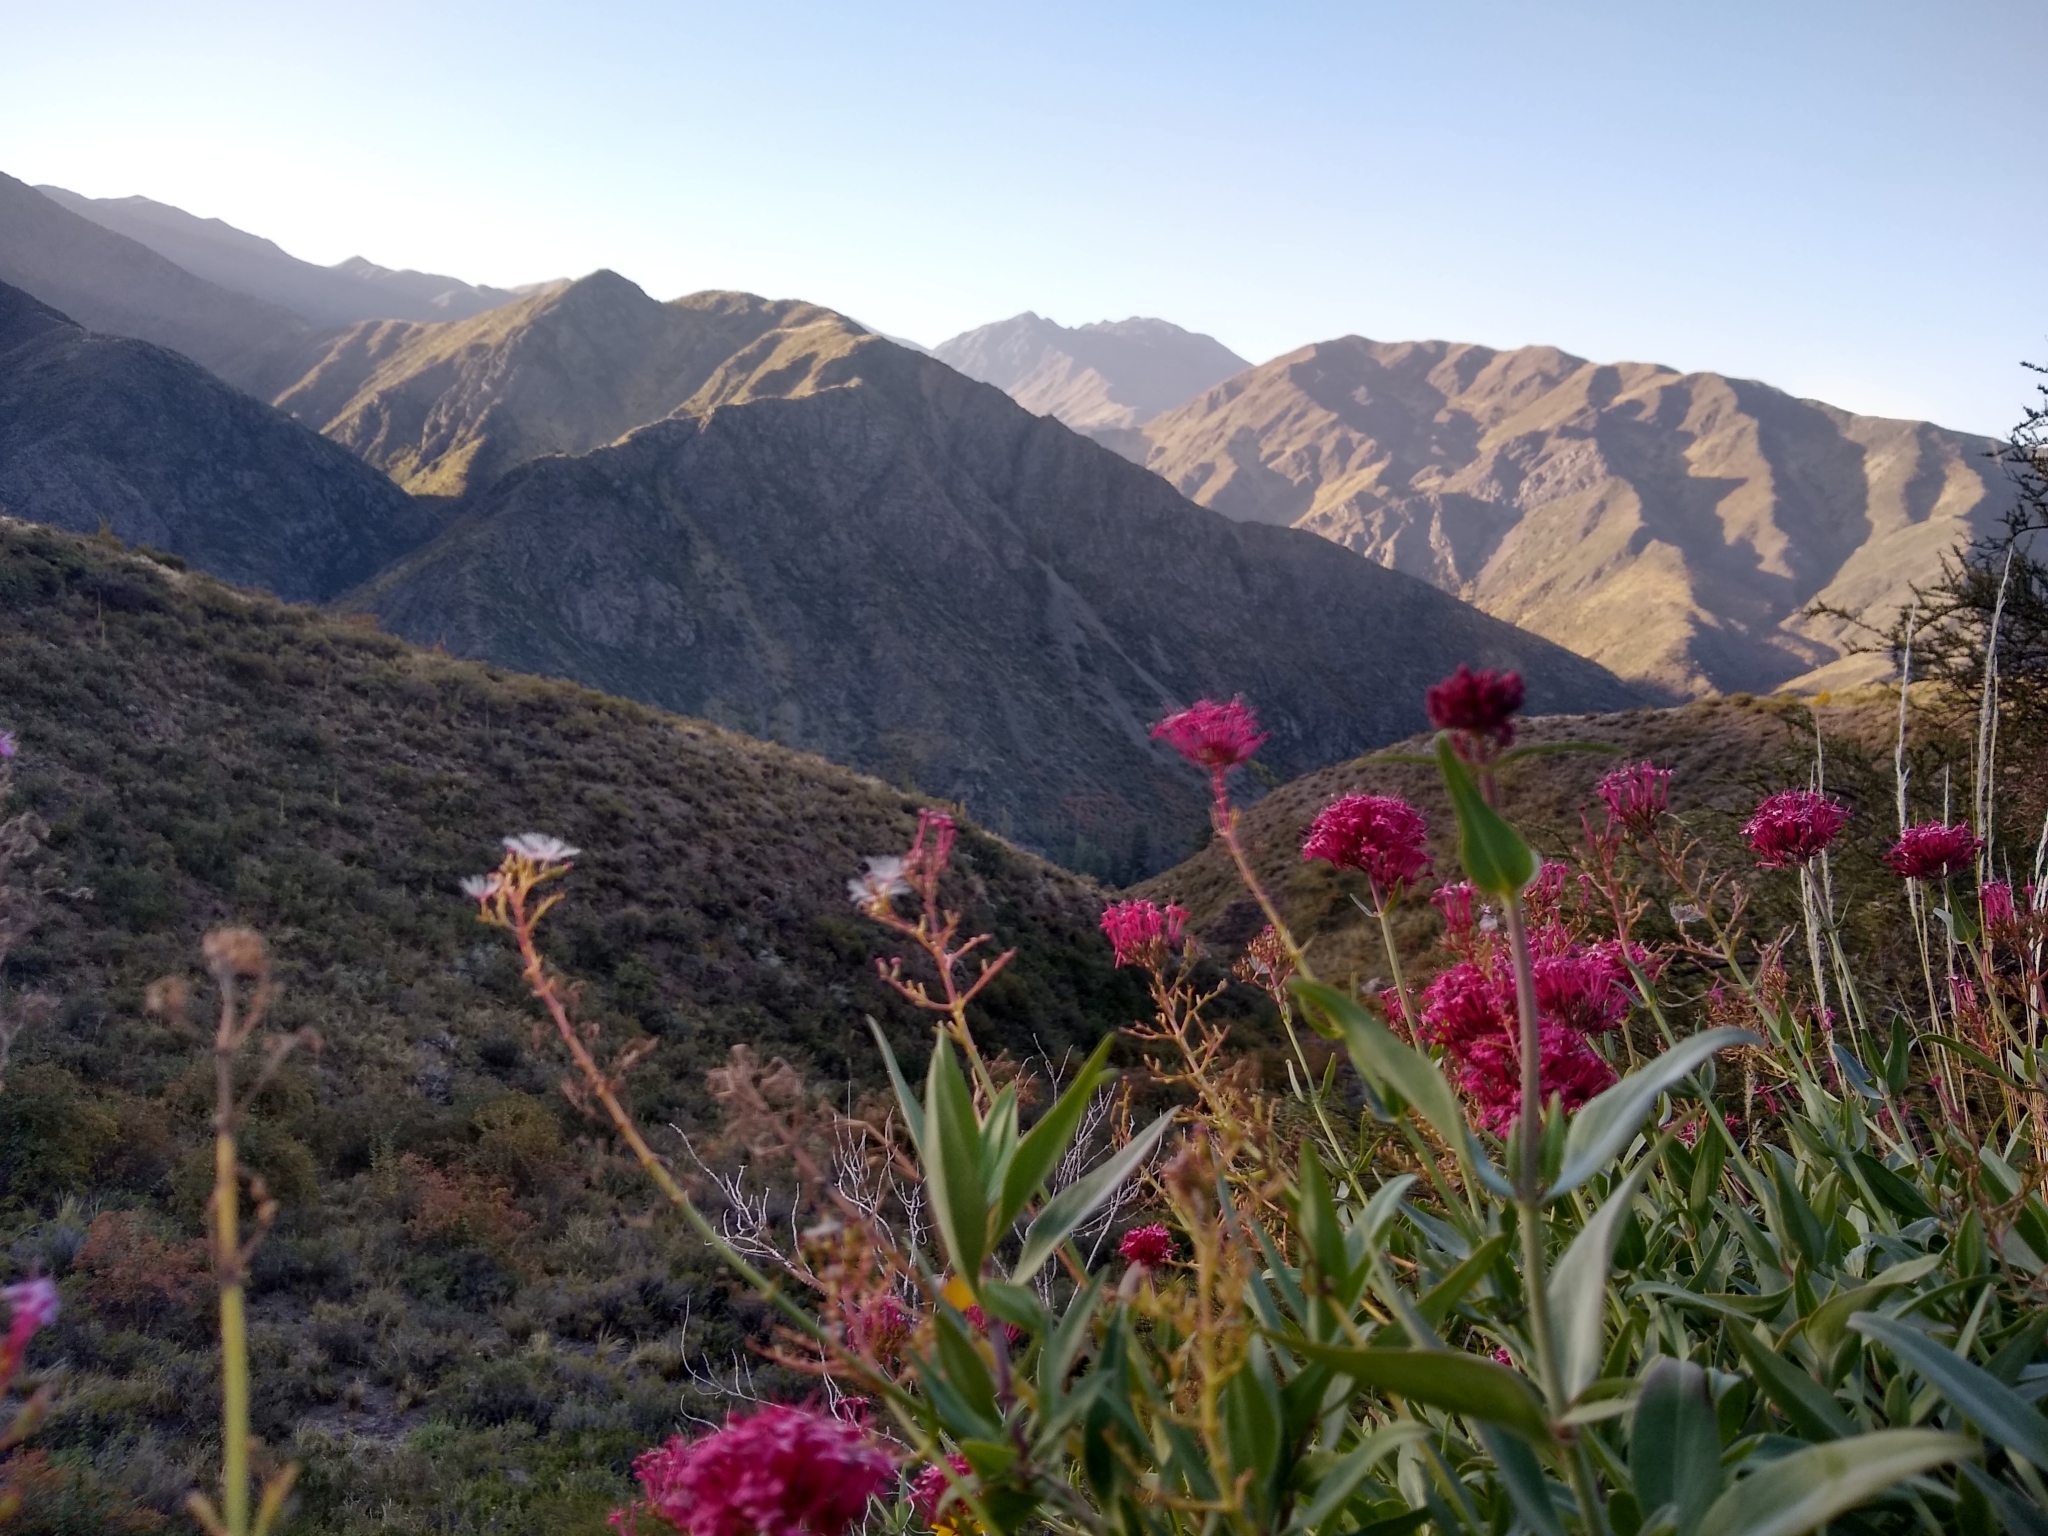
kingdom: Plantae
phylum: Tracheophyta
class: Magnoliopsida
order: Dipsacales
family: Caprifoliaceae
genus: Centranthus
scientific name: Centranthus ruber
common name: Red valerian
